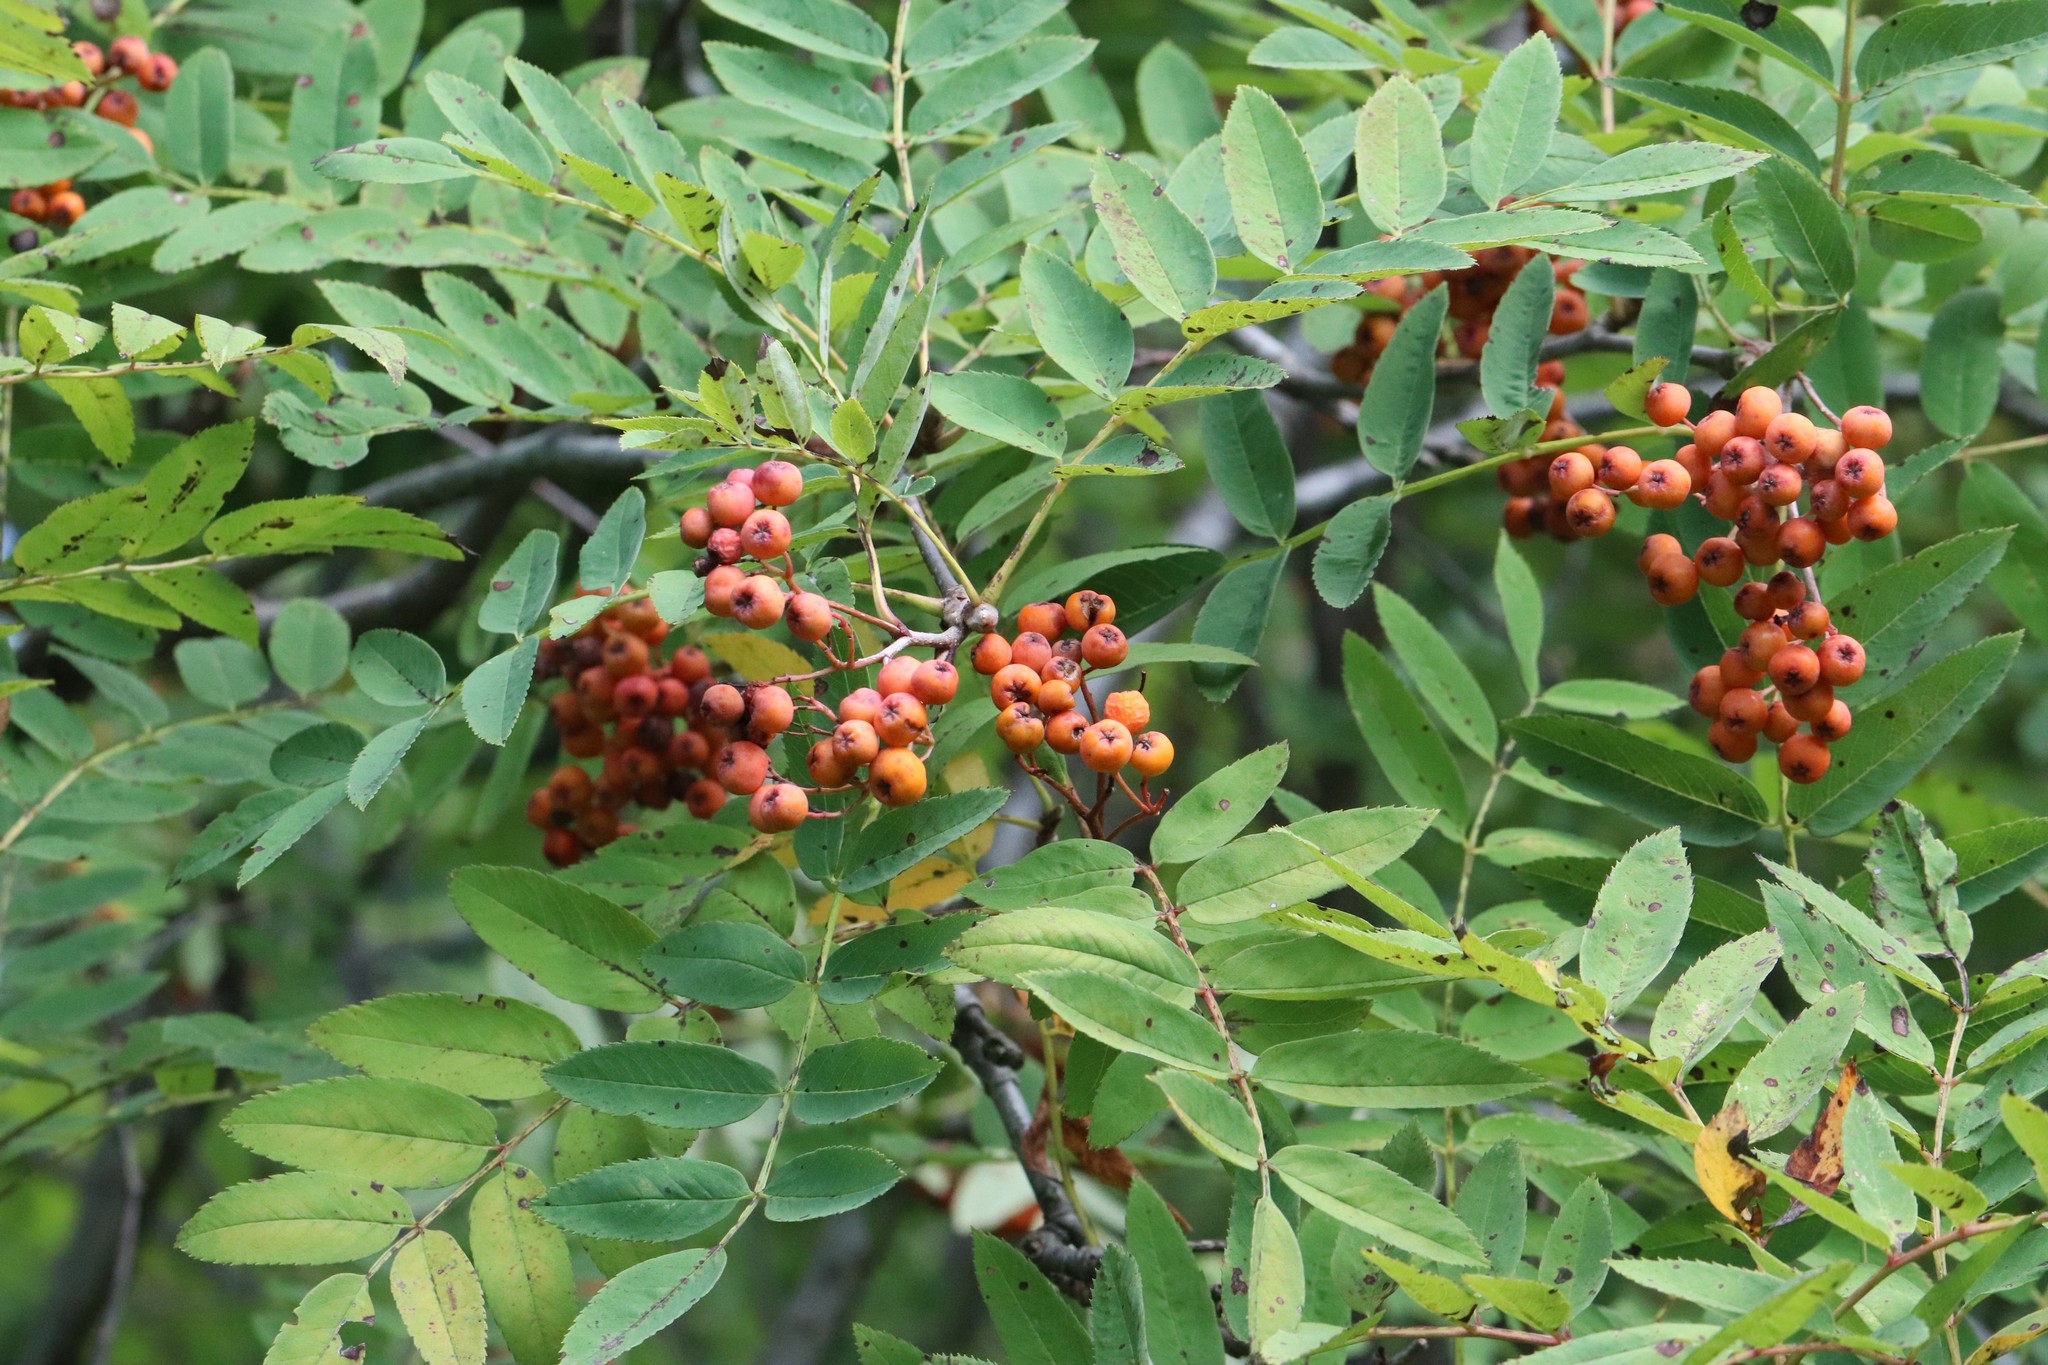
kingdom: Plantae
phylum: Tracheophyta
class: Magnoliopsida
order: Rosales
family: Rosaceae
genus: Sorbus
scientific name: Sorbus aucuparia
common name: Rowan
